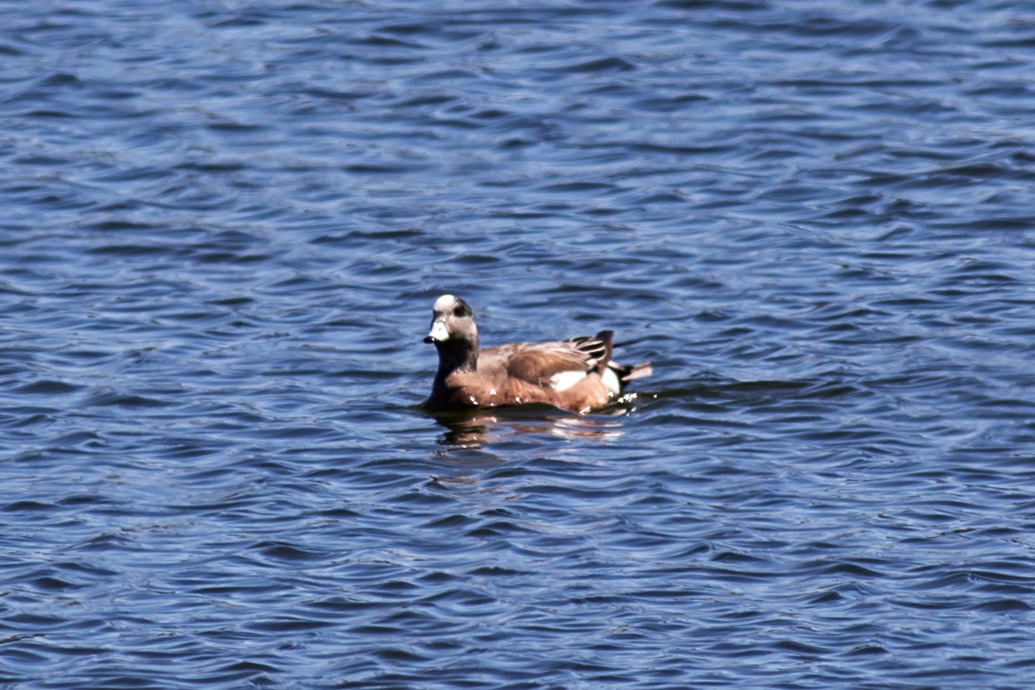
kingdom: Animalia
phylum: Chordata
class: Aves
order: Anseriformes
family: Anatidae
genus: Mareca
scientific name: Mareca americana
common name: American wigeon
